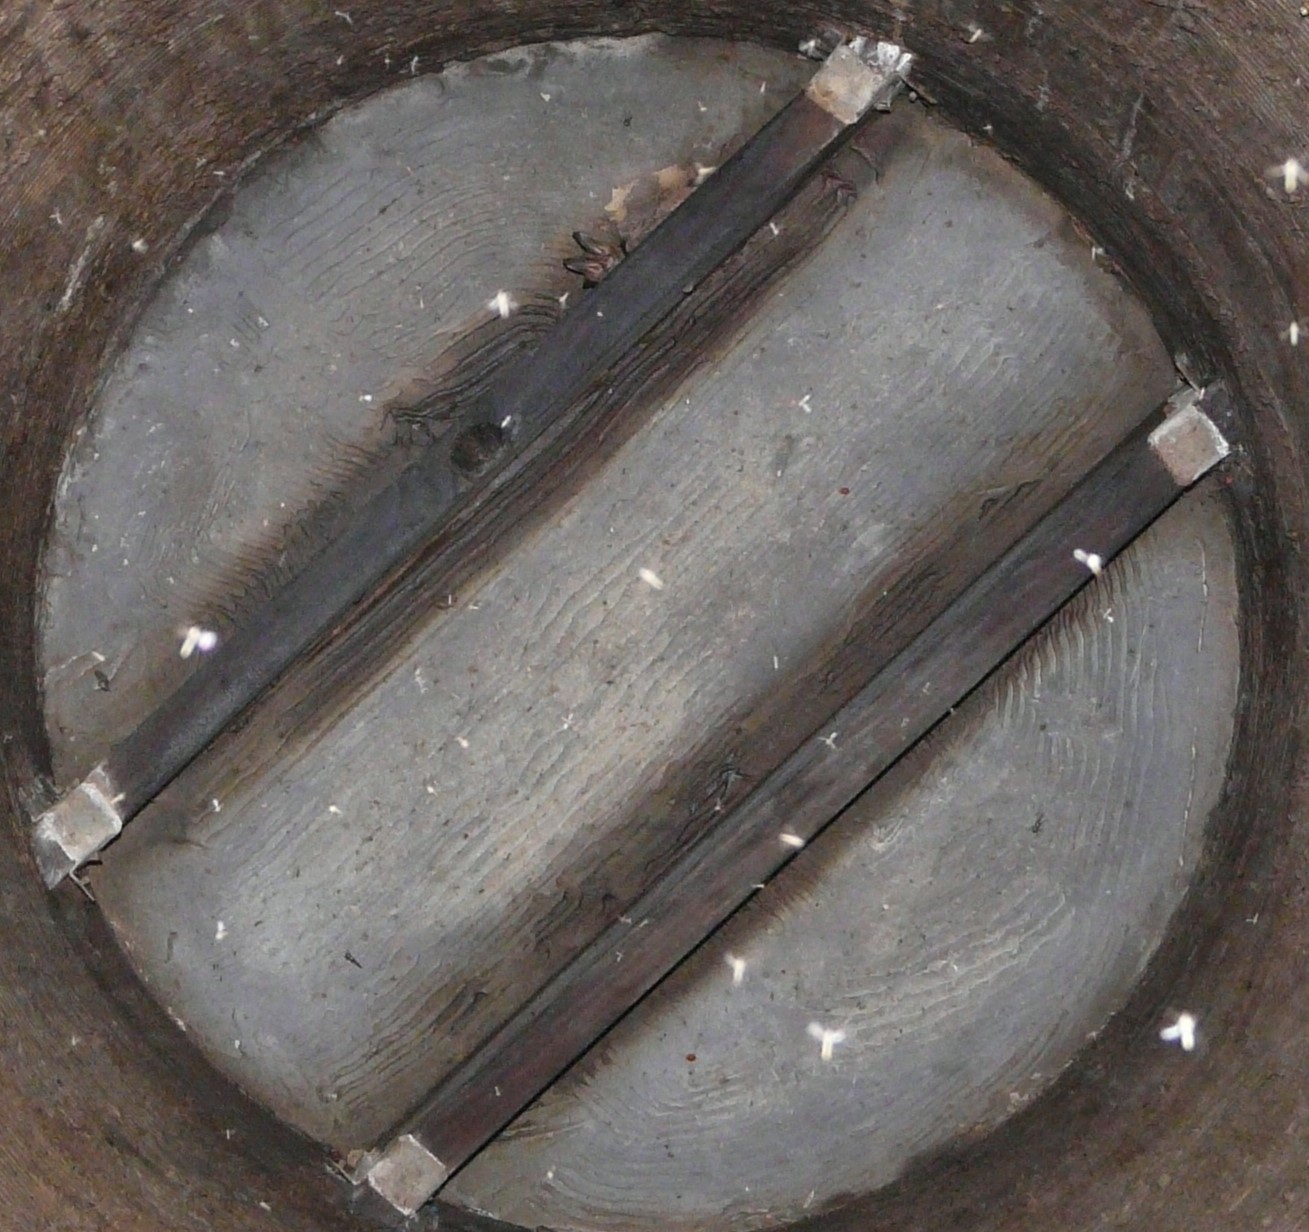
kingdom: Animalia
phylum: Chordata
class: Mammalia
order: Chiroptera
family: Vespertilionidae
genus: Corynorhinus
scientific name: Corynorhinus rafinesquii
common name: Rafinesque's big-eared bat
